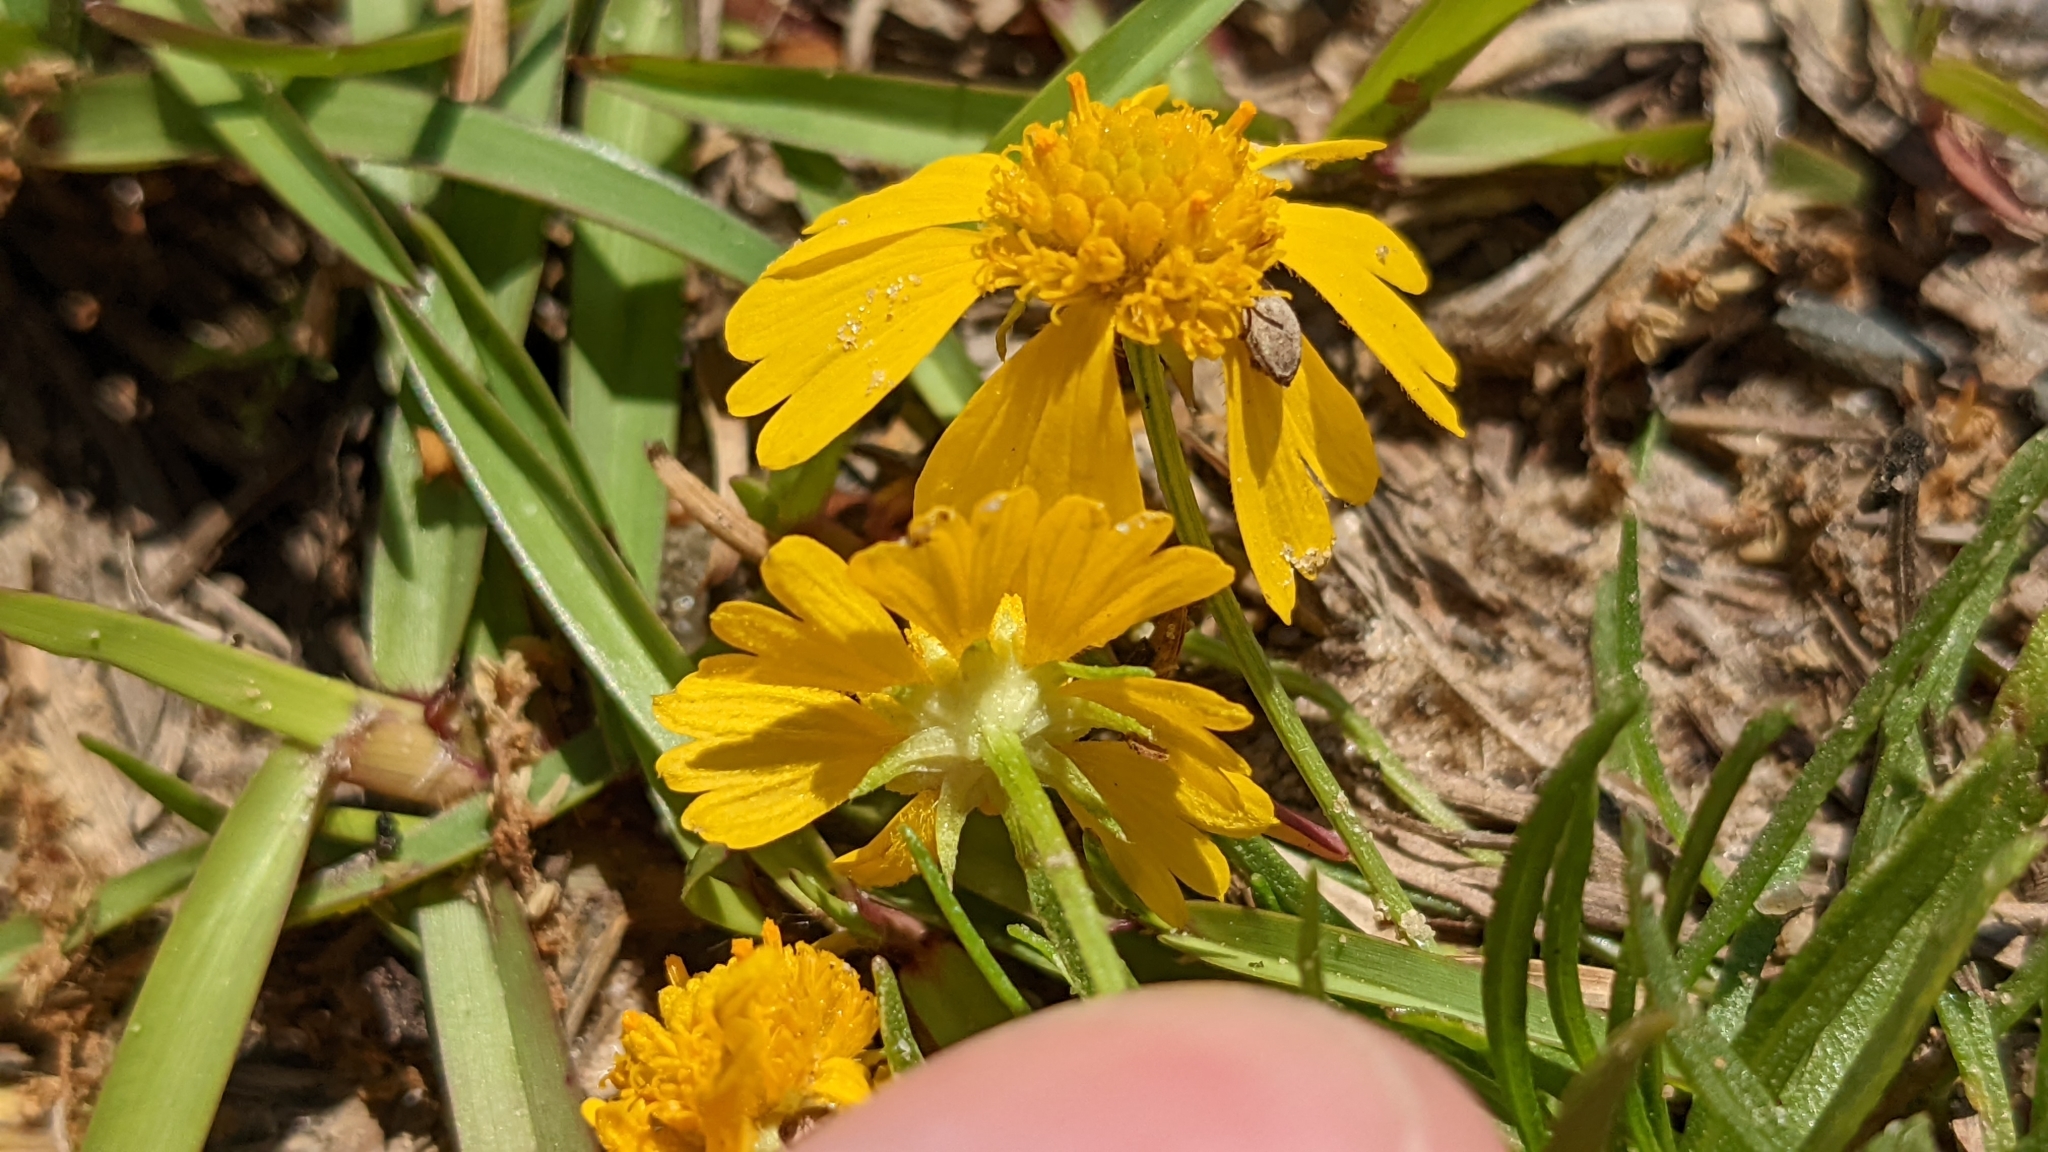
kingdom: Plantae
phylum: Tracheophyta
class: Magnoliopsida
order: Asterales
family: Asteraceae
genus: Helenium
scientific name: Helenium amarum
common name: Bitter sneezeweed
